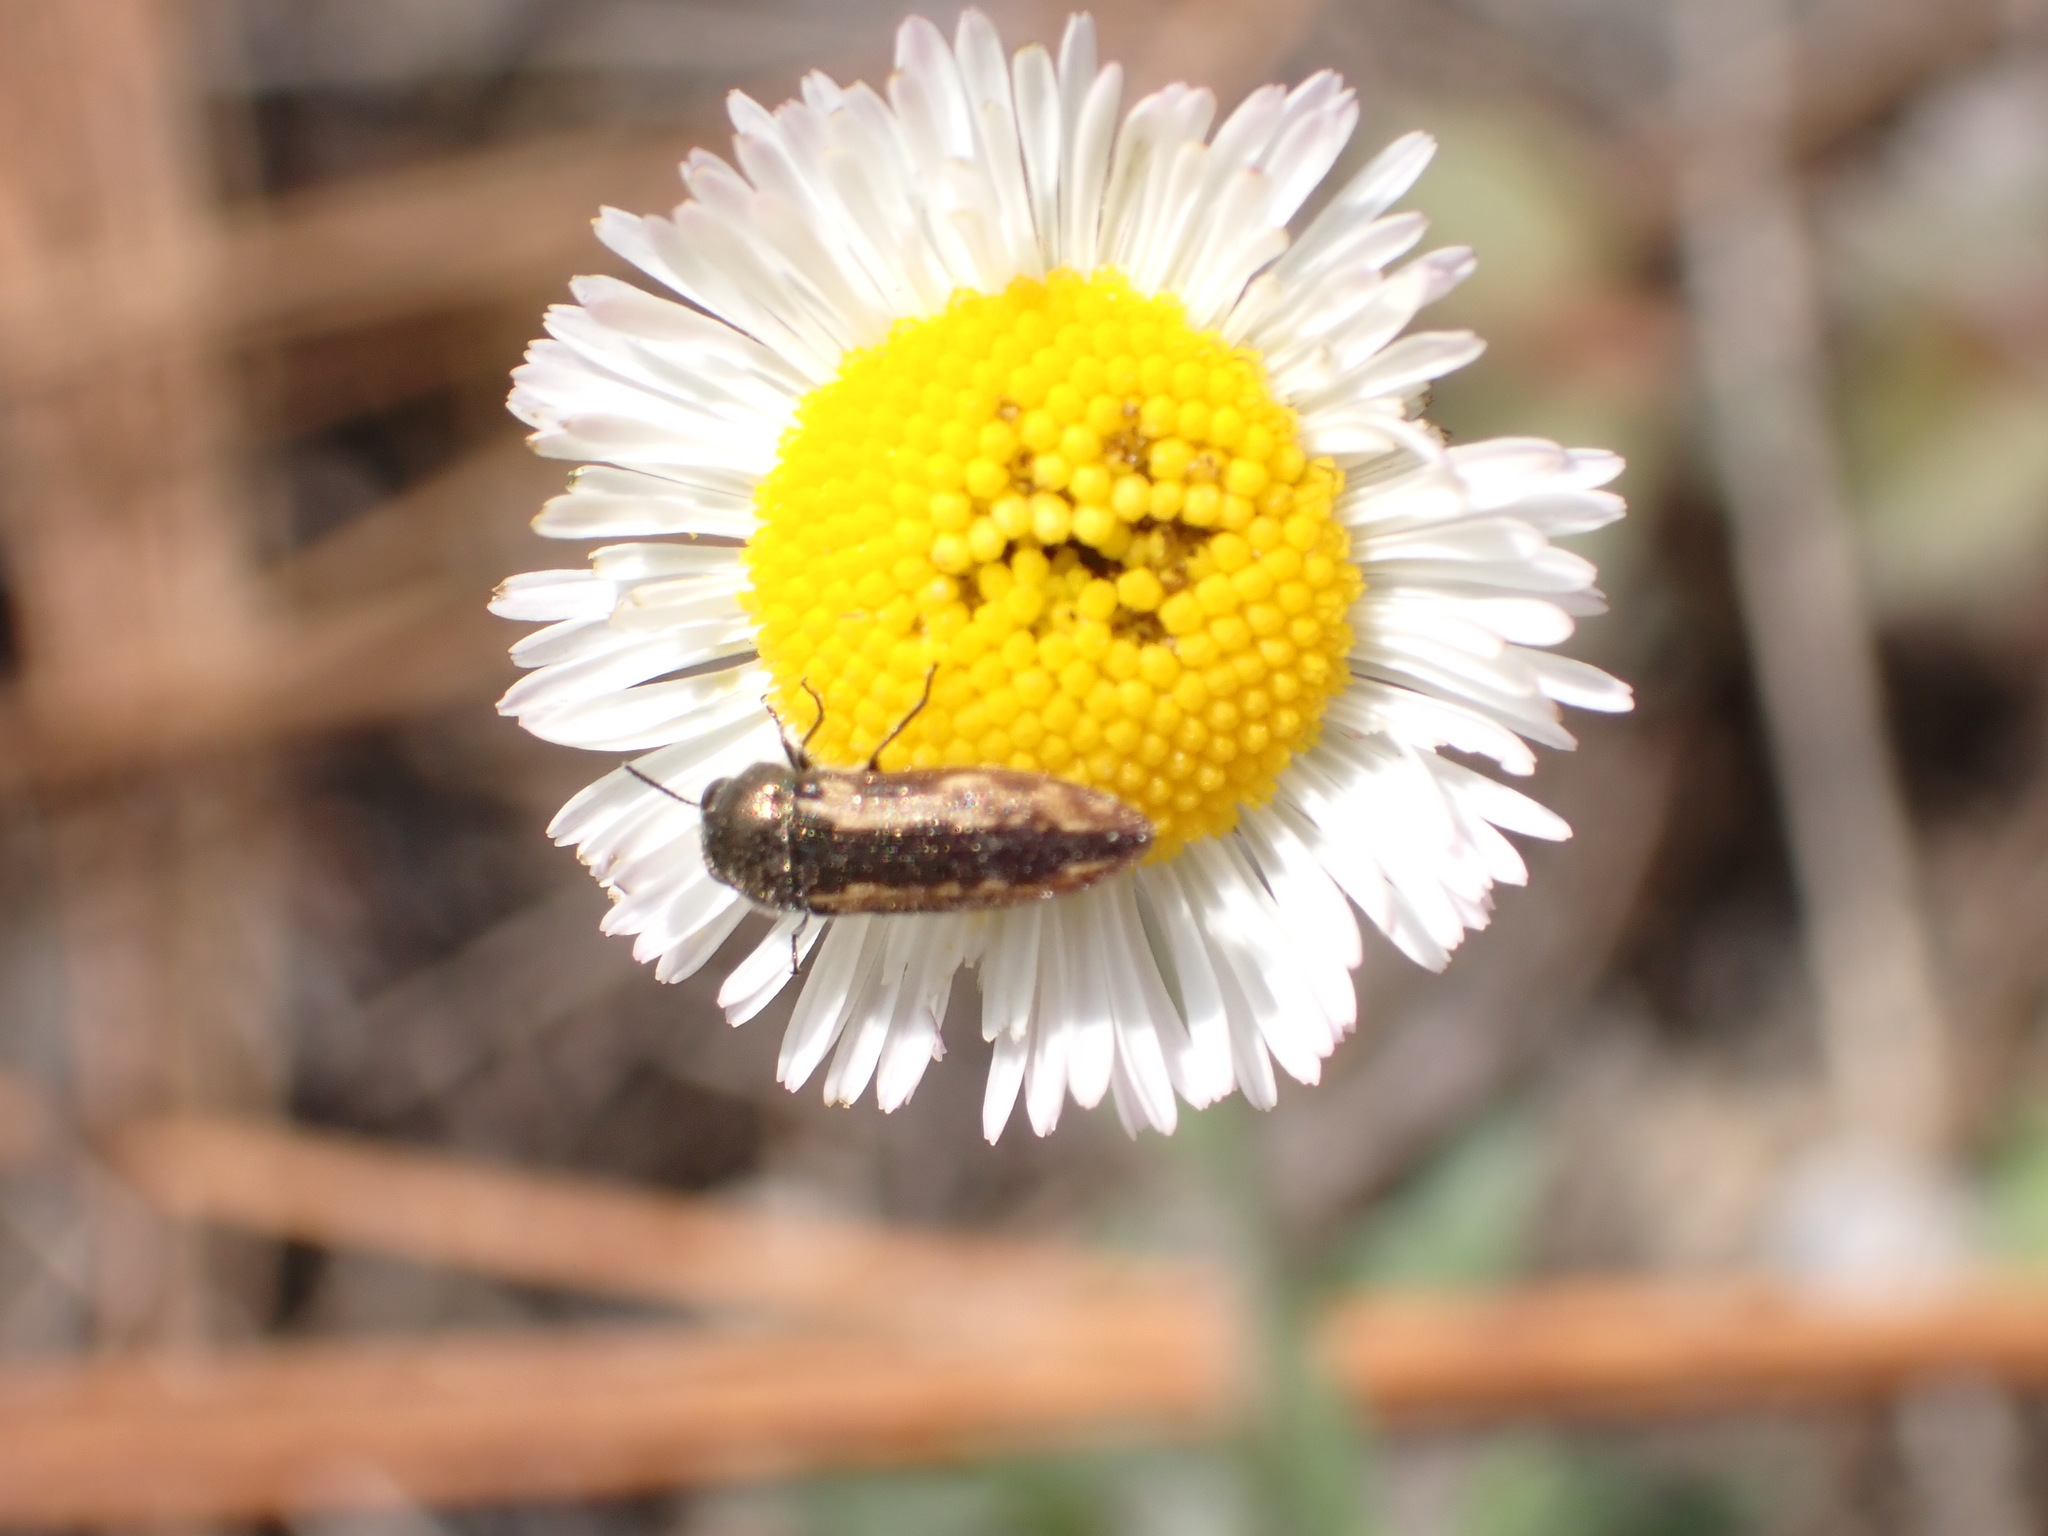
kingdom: Animalia
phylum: Arthropoda
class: Insecta
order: Coleoptera
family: Buprestidae
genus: Acmaeodera
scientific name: Acmaeodera neoneglecta
